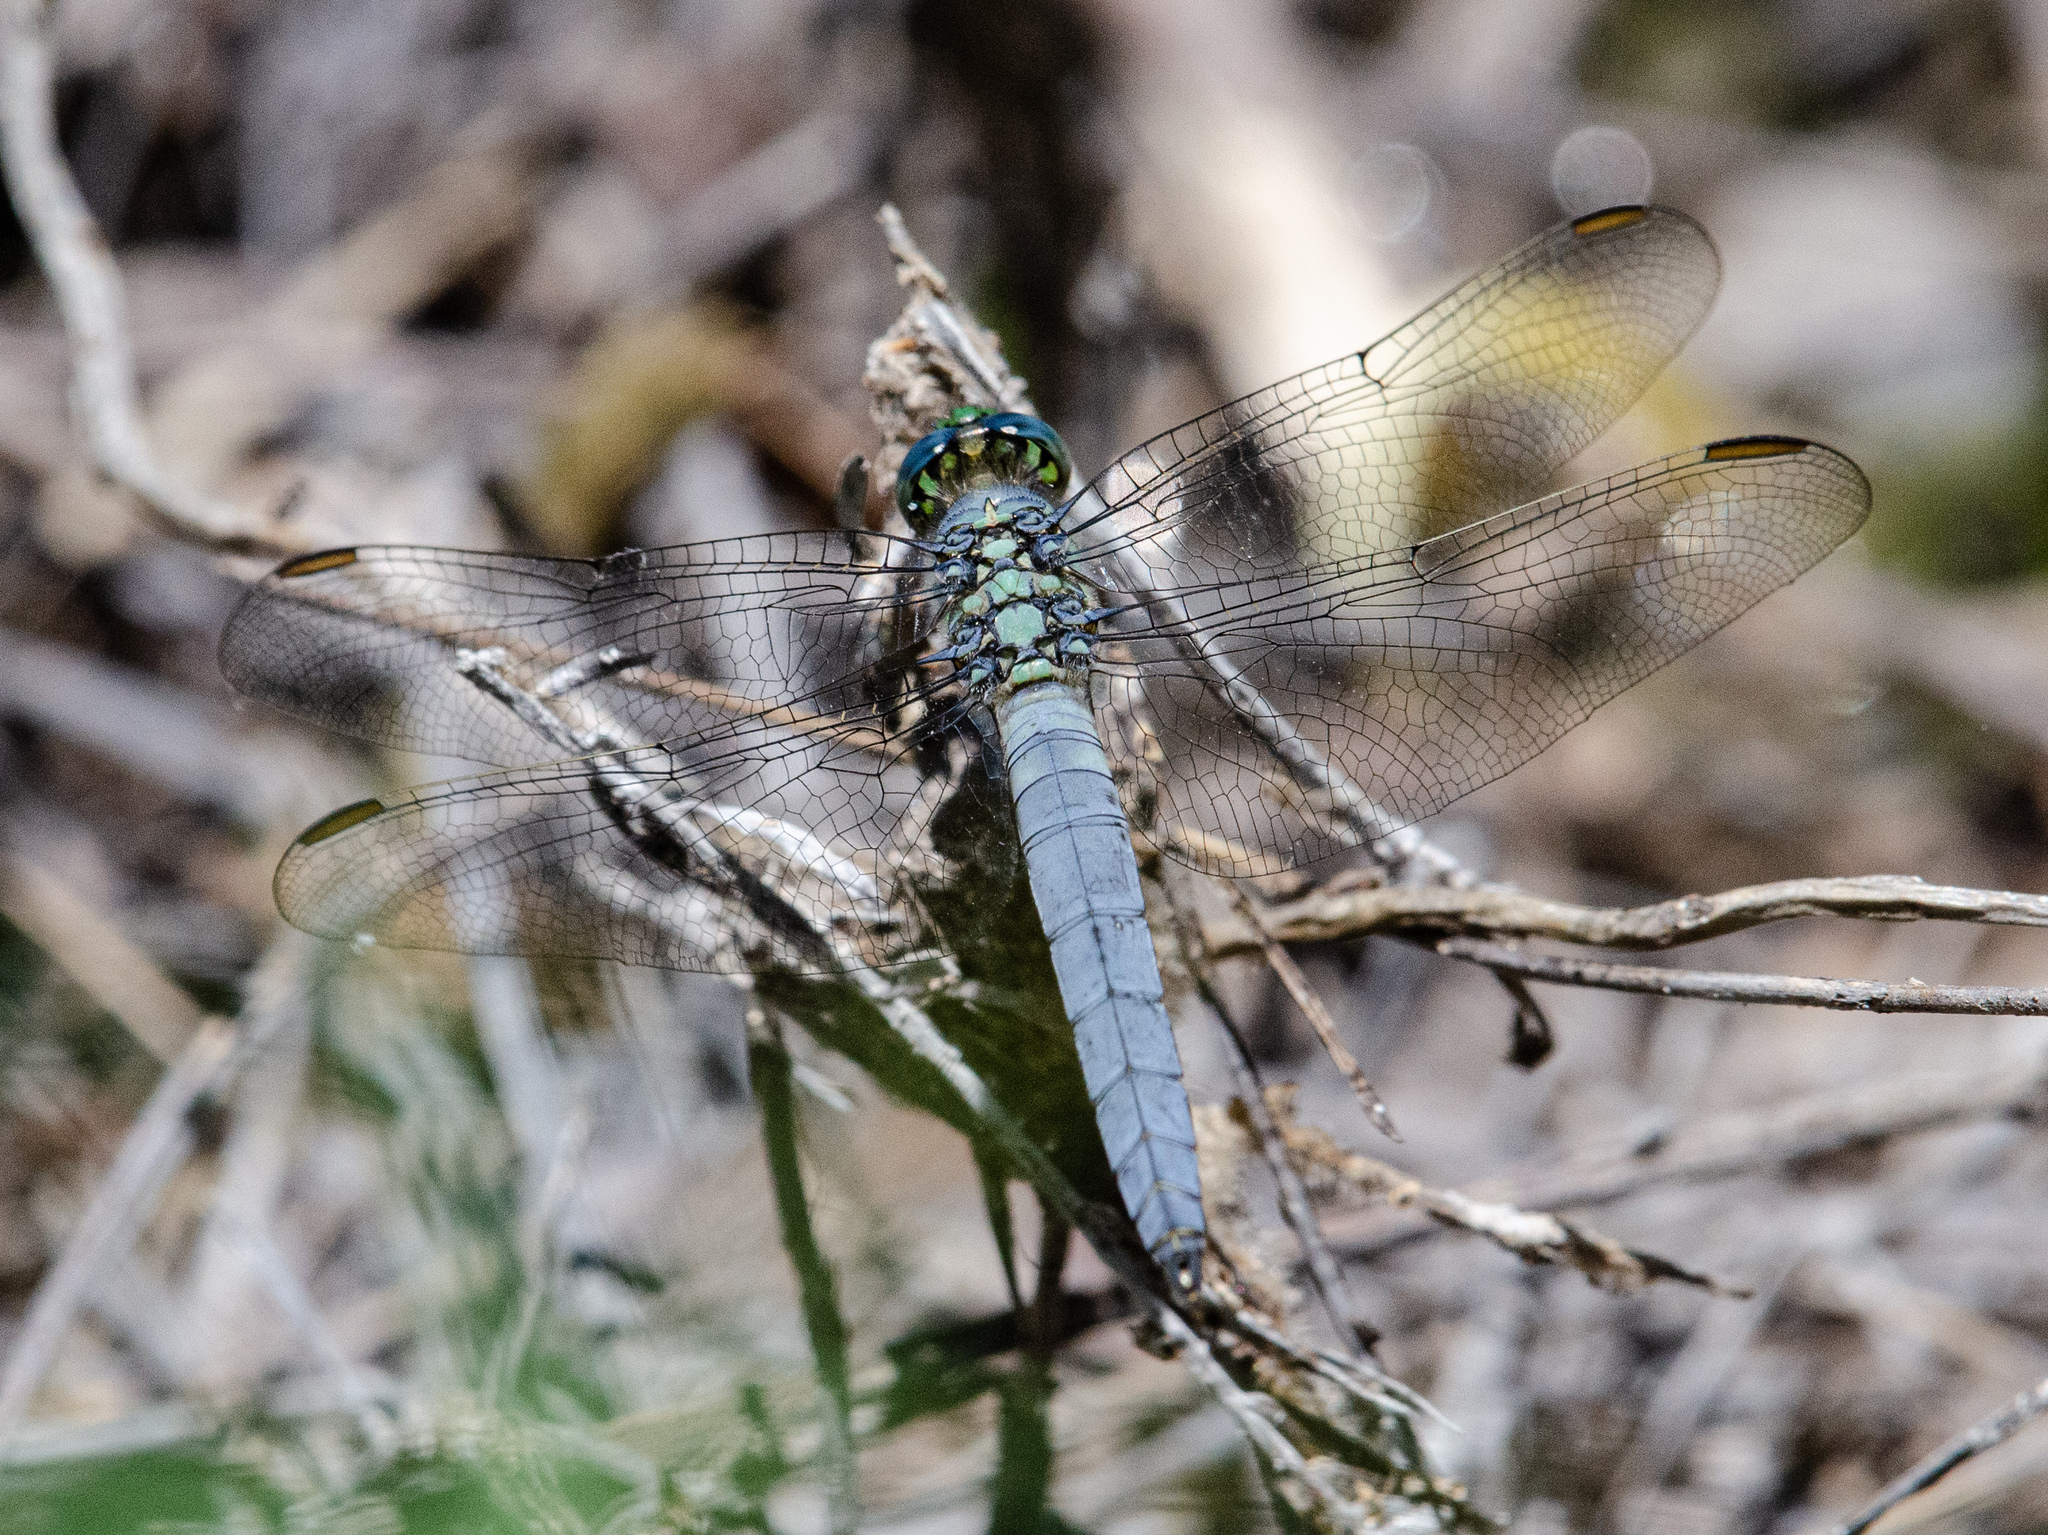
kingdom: Animalia
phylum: Arthropoda
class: Insecta
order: Odonata
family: Libellulidae
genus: Erythemis
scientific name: Erythemis collocata
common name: Western pondhawk
